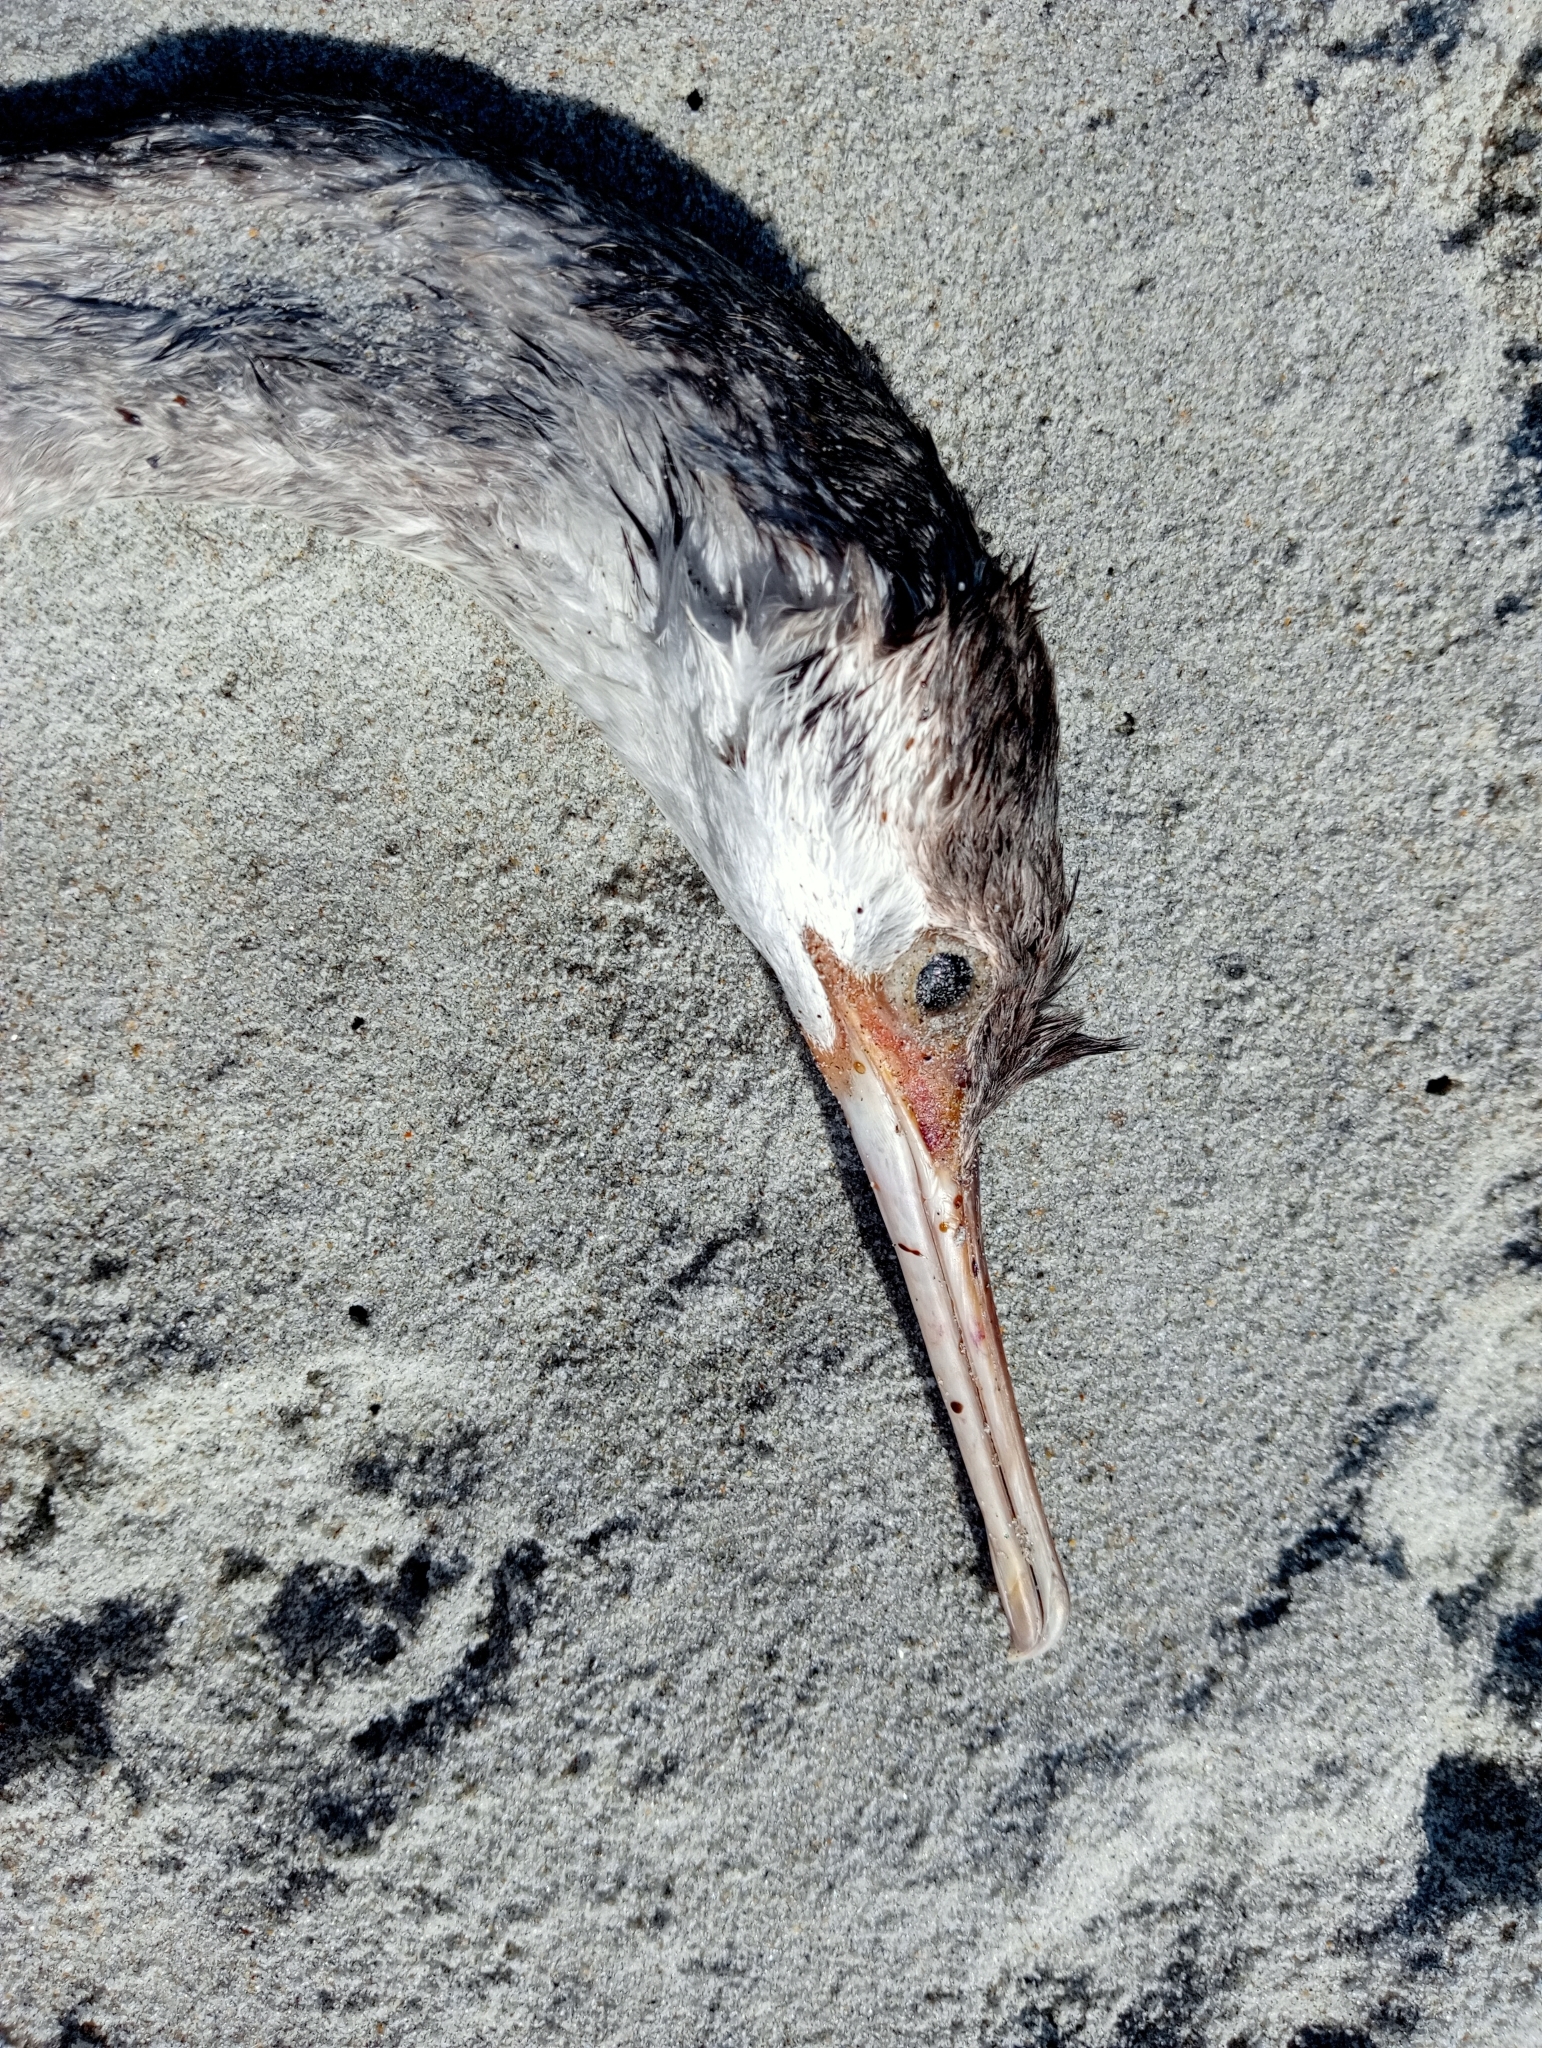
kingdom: Animalia
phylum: Chordata
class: Aves
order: Suliformes
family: Phalacrocoracidae
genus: Phalacrocorax
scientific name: Phalacrocorax punctatus
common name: Spotted shag
